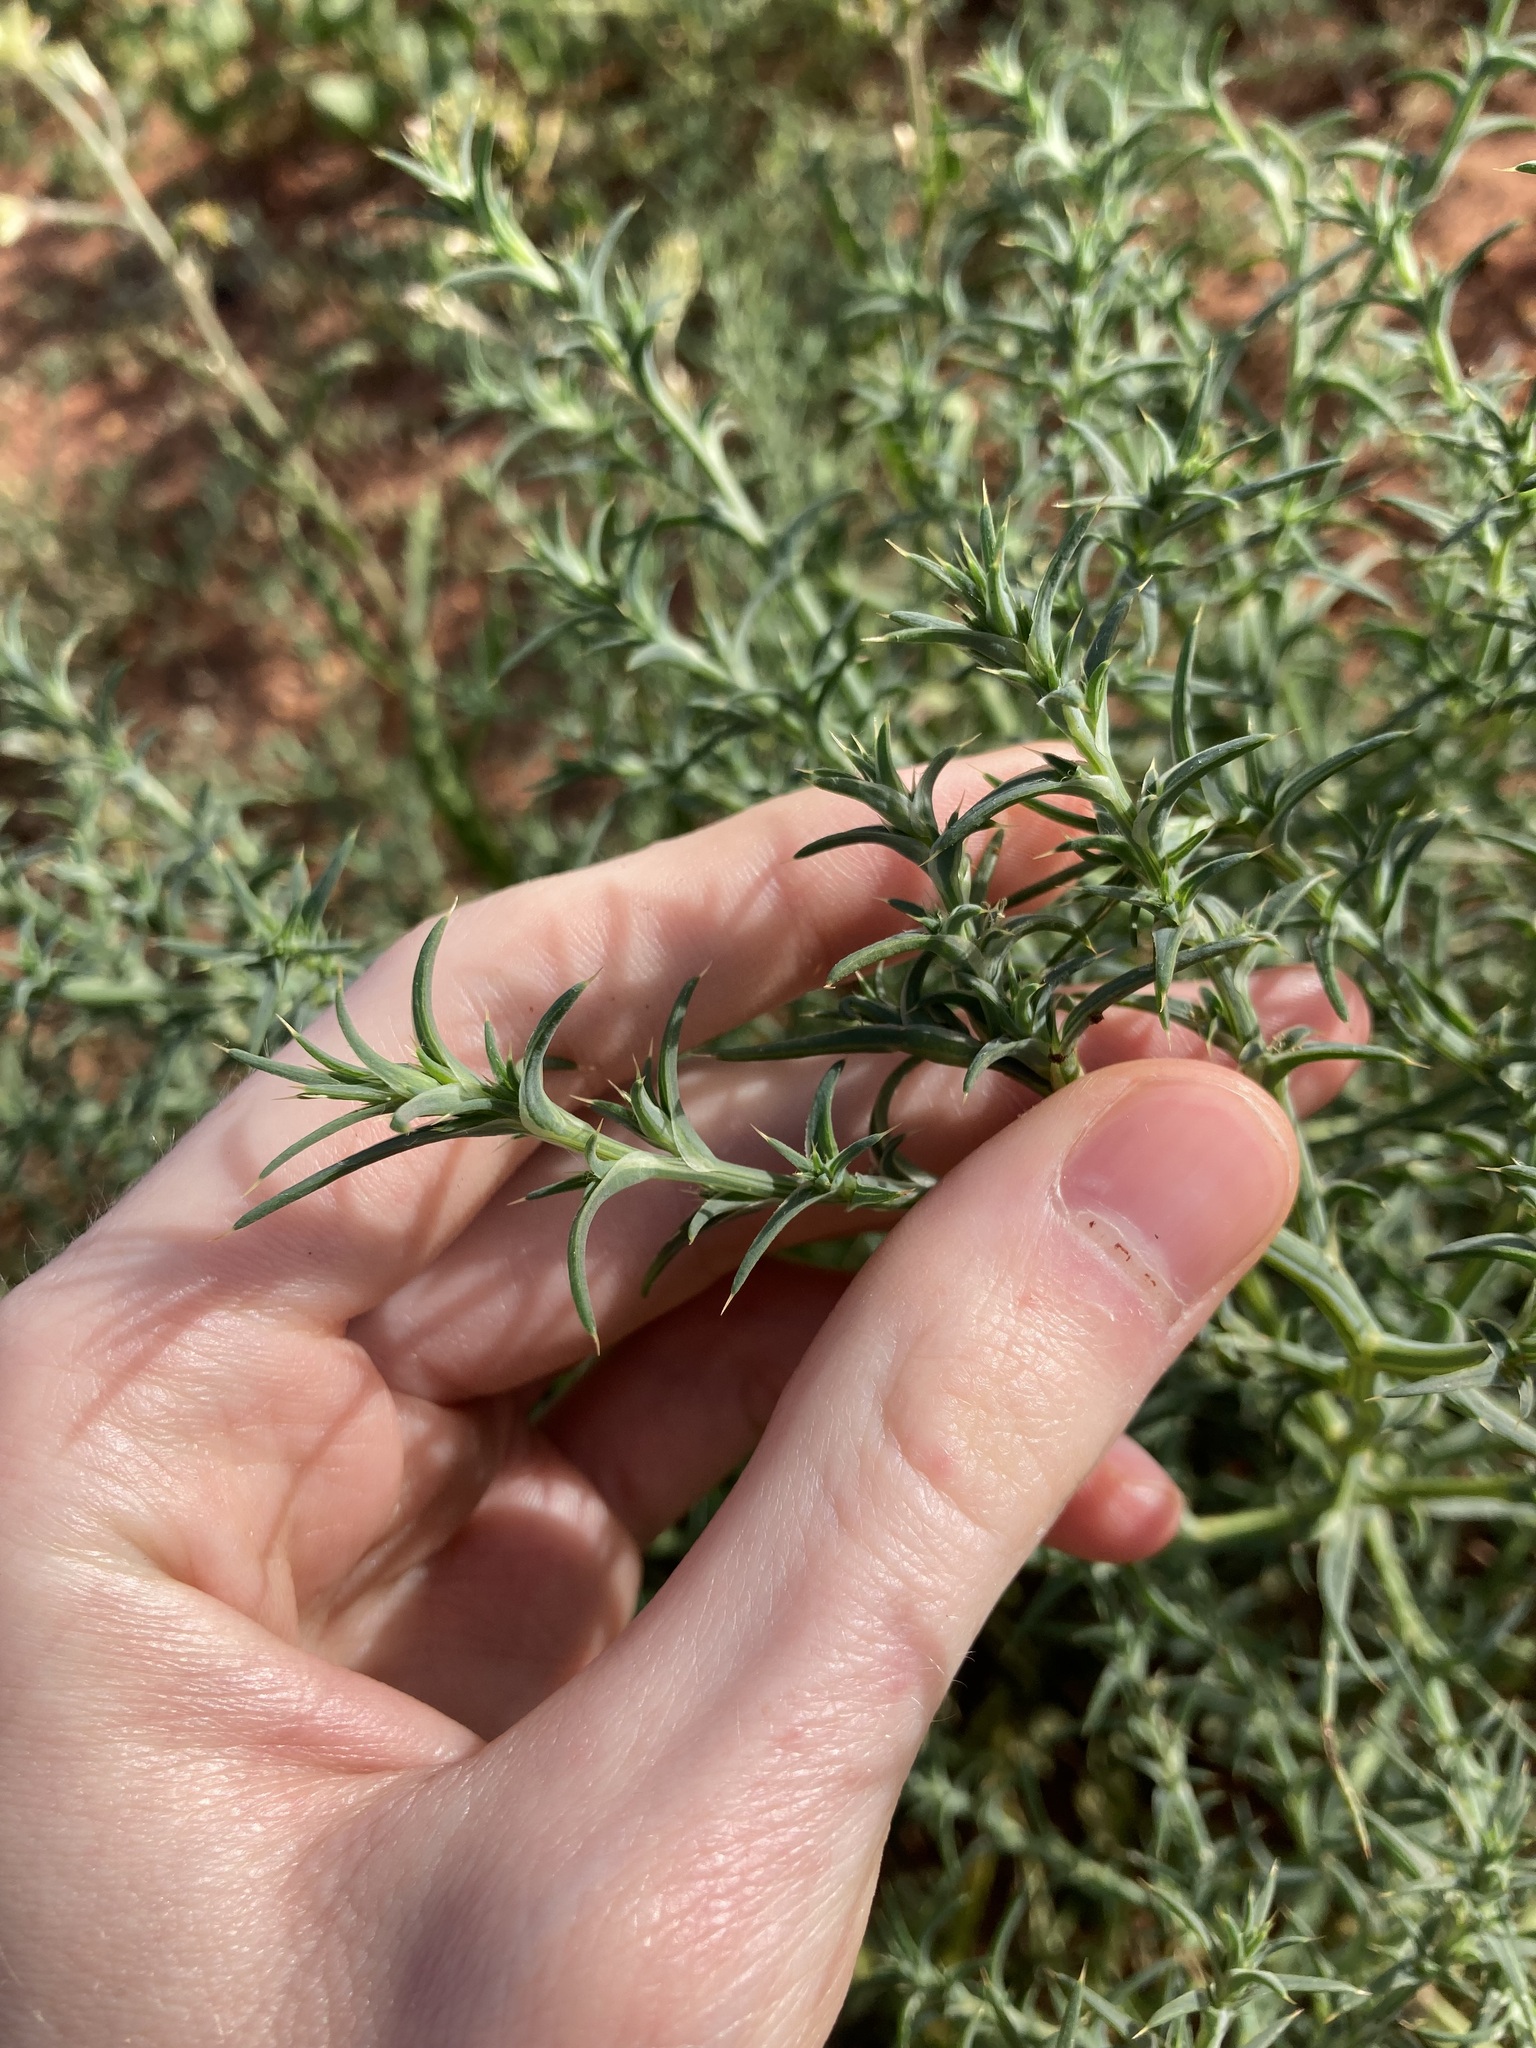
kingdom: Plantae
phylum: Tracheophyta
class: Magnoliopsida
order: Caryophyllales
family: Amaranthaceae
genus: Salsola
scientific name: Salsola australis
